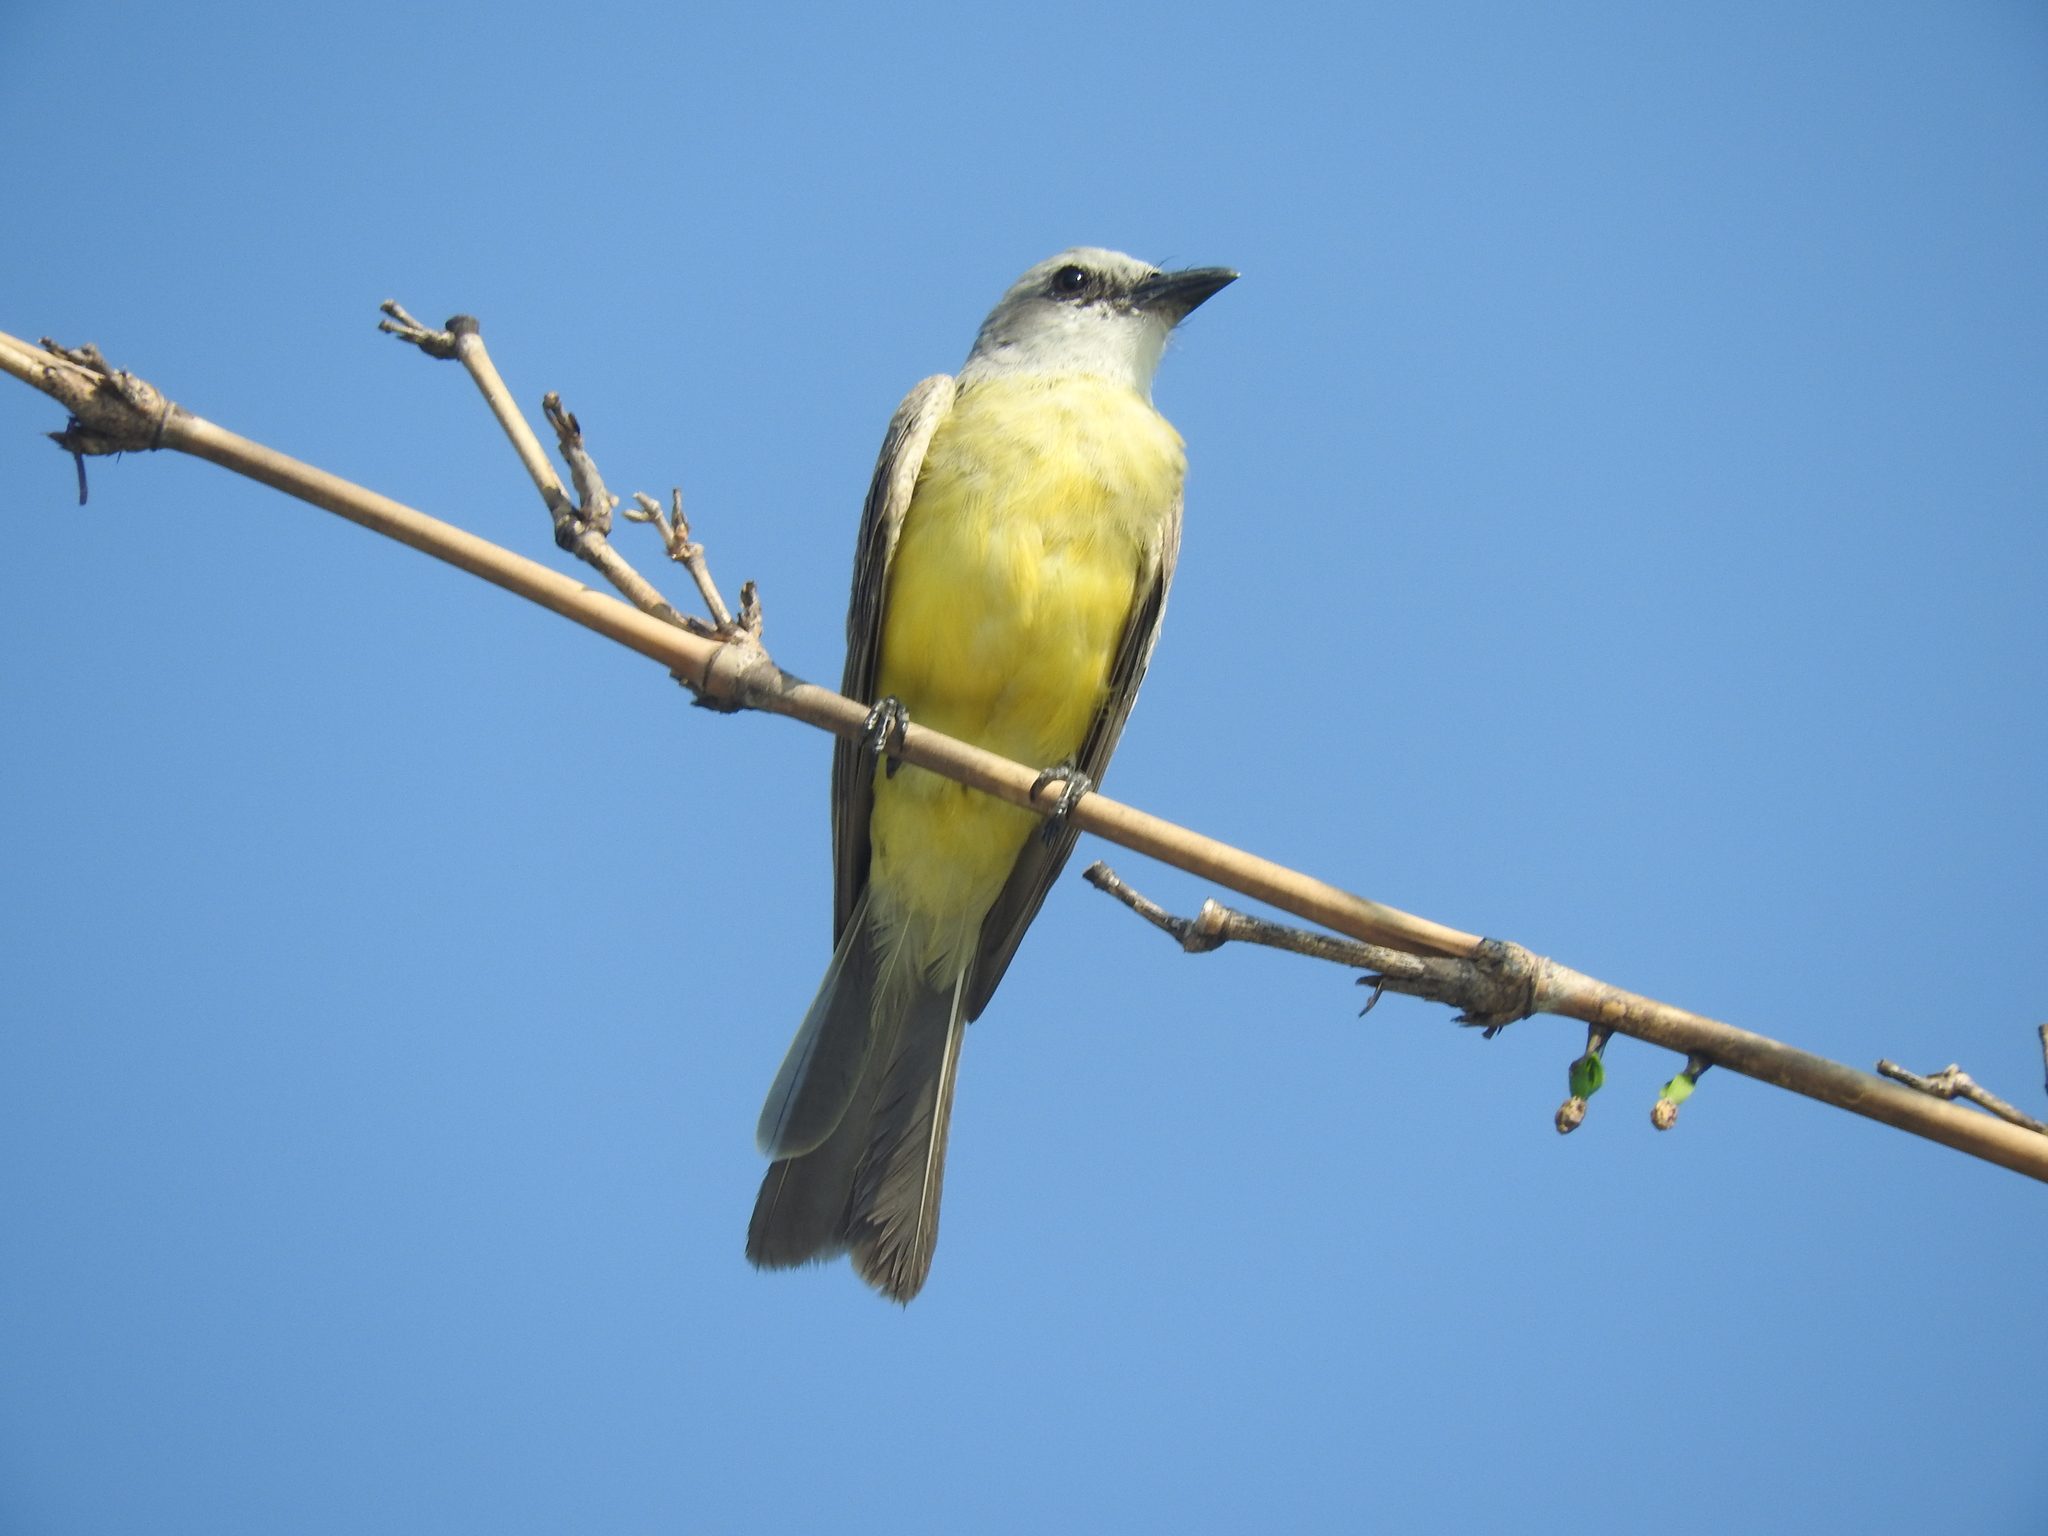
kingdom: Animalia
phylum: Chordata
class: Aves
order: Passeriformes
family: Tyrannidae
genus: Tyrannus
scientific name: Tyrannus
